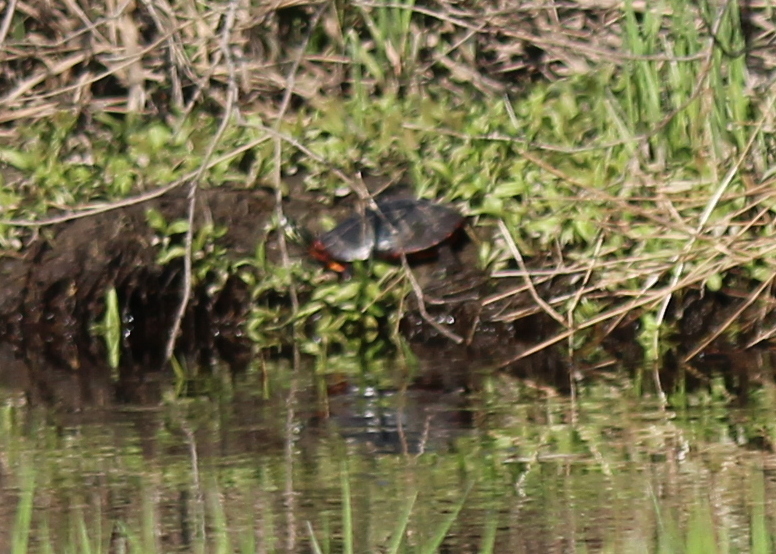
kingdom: Animalia
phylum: Chordata
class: Testudines
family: Emydidae
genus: Chrysemys
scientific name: Chrysemys picta
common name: Painted turtle
